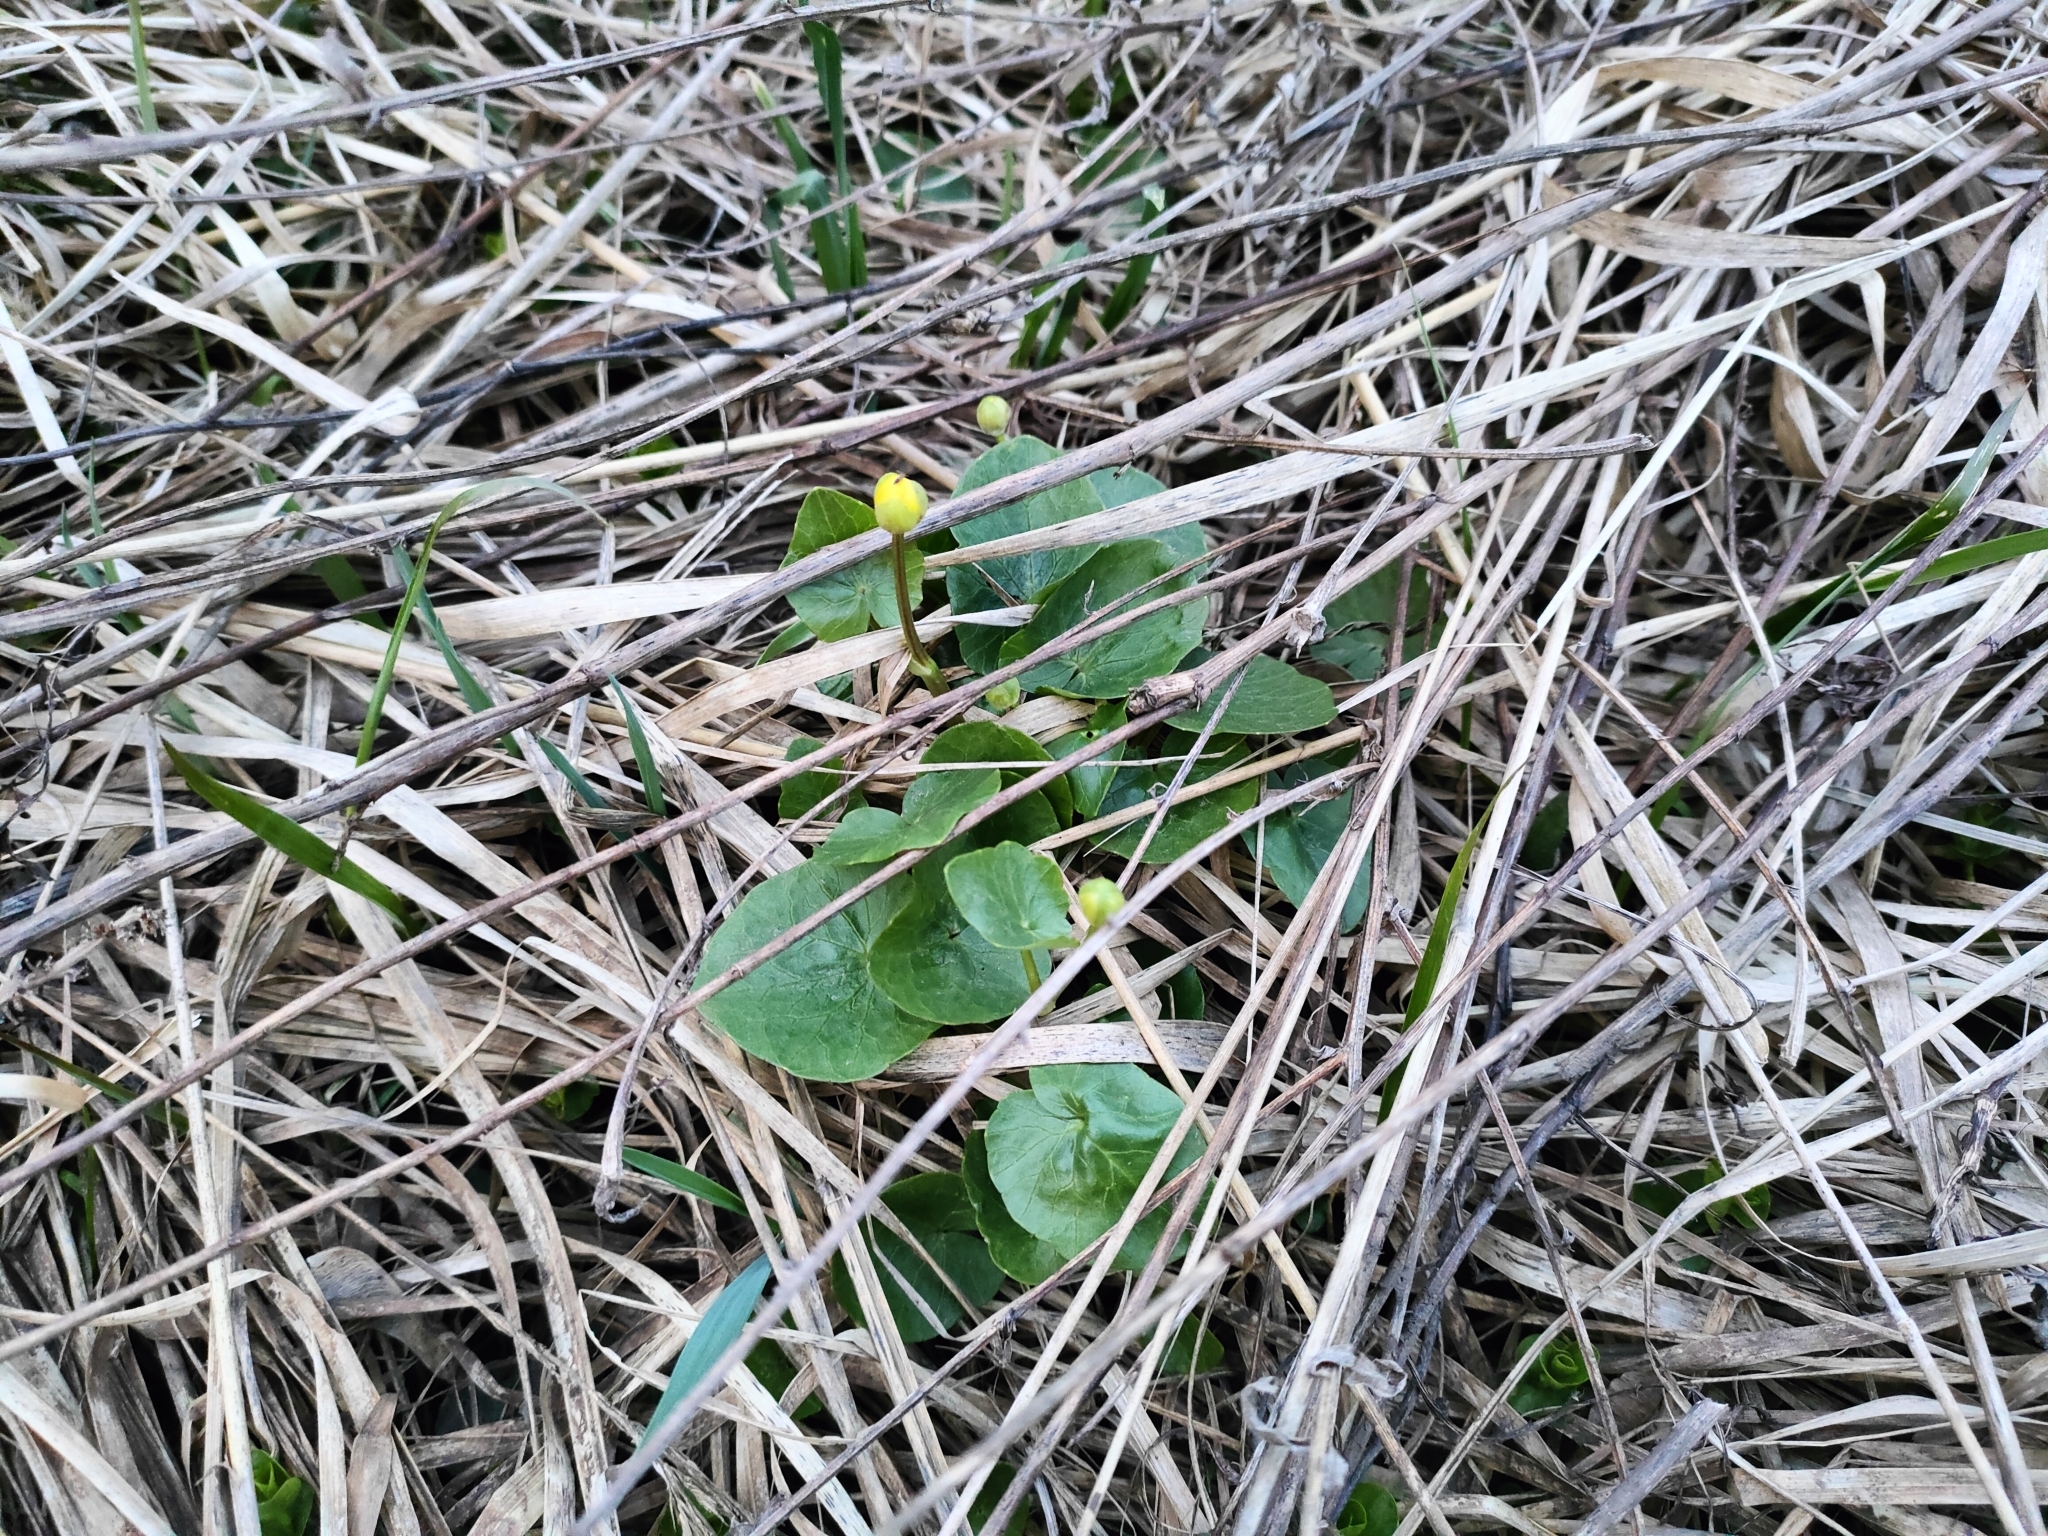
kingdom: Plantae
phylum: Tracheophyta
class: Magnoliopsida
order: Ranunculales
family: Ranunculaceae
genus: Ficaria
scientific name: Ficaria verna
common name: Lesser celandine
